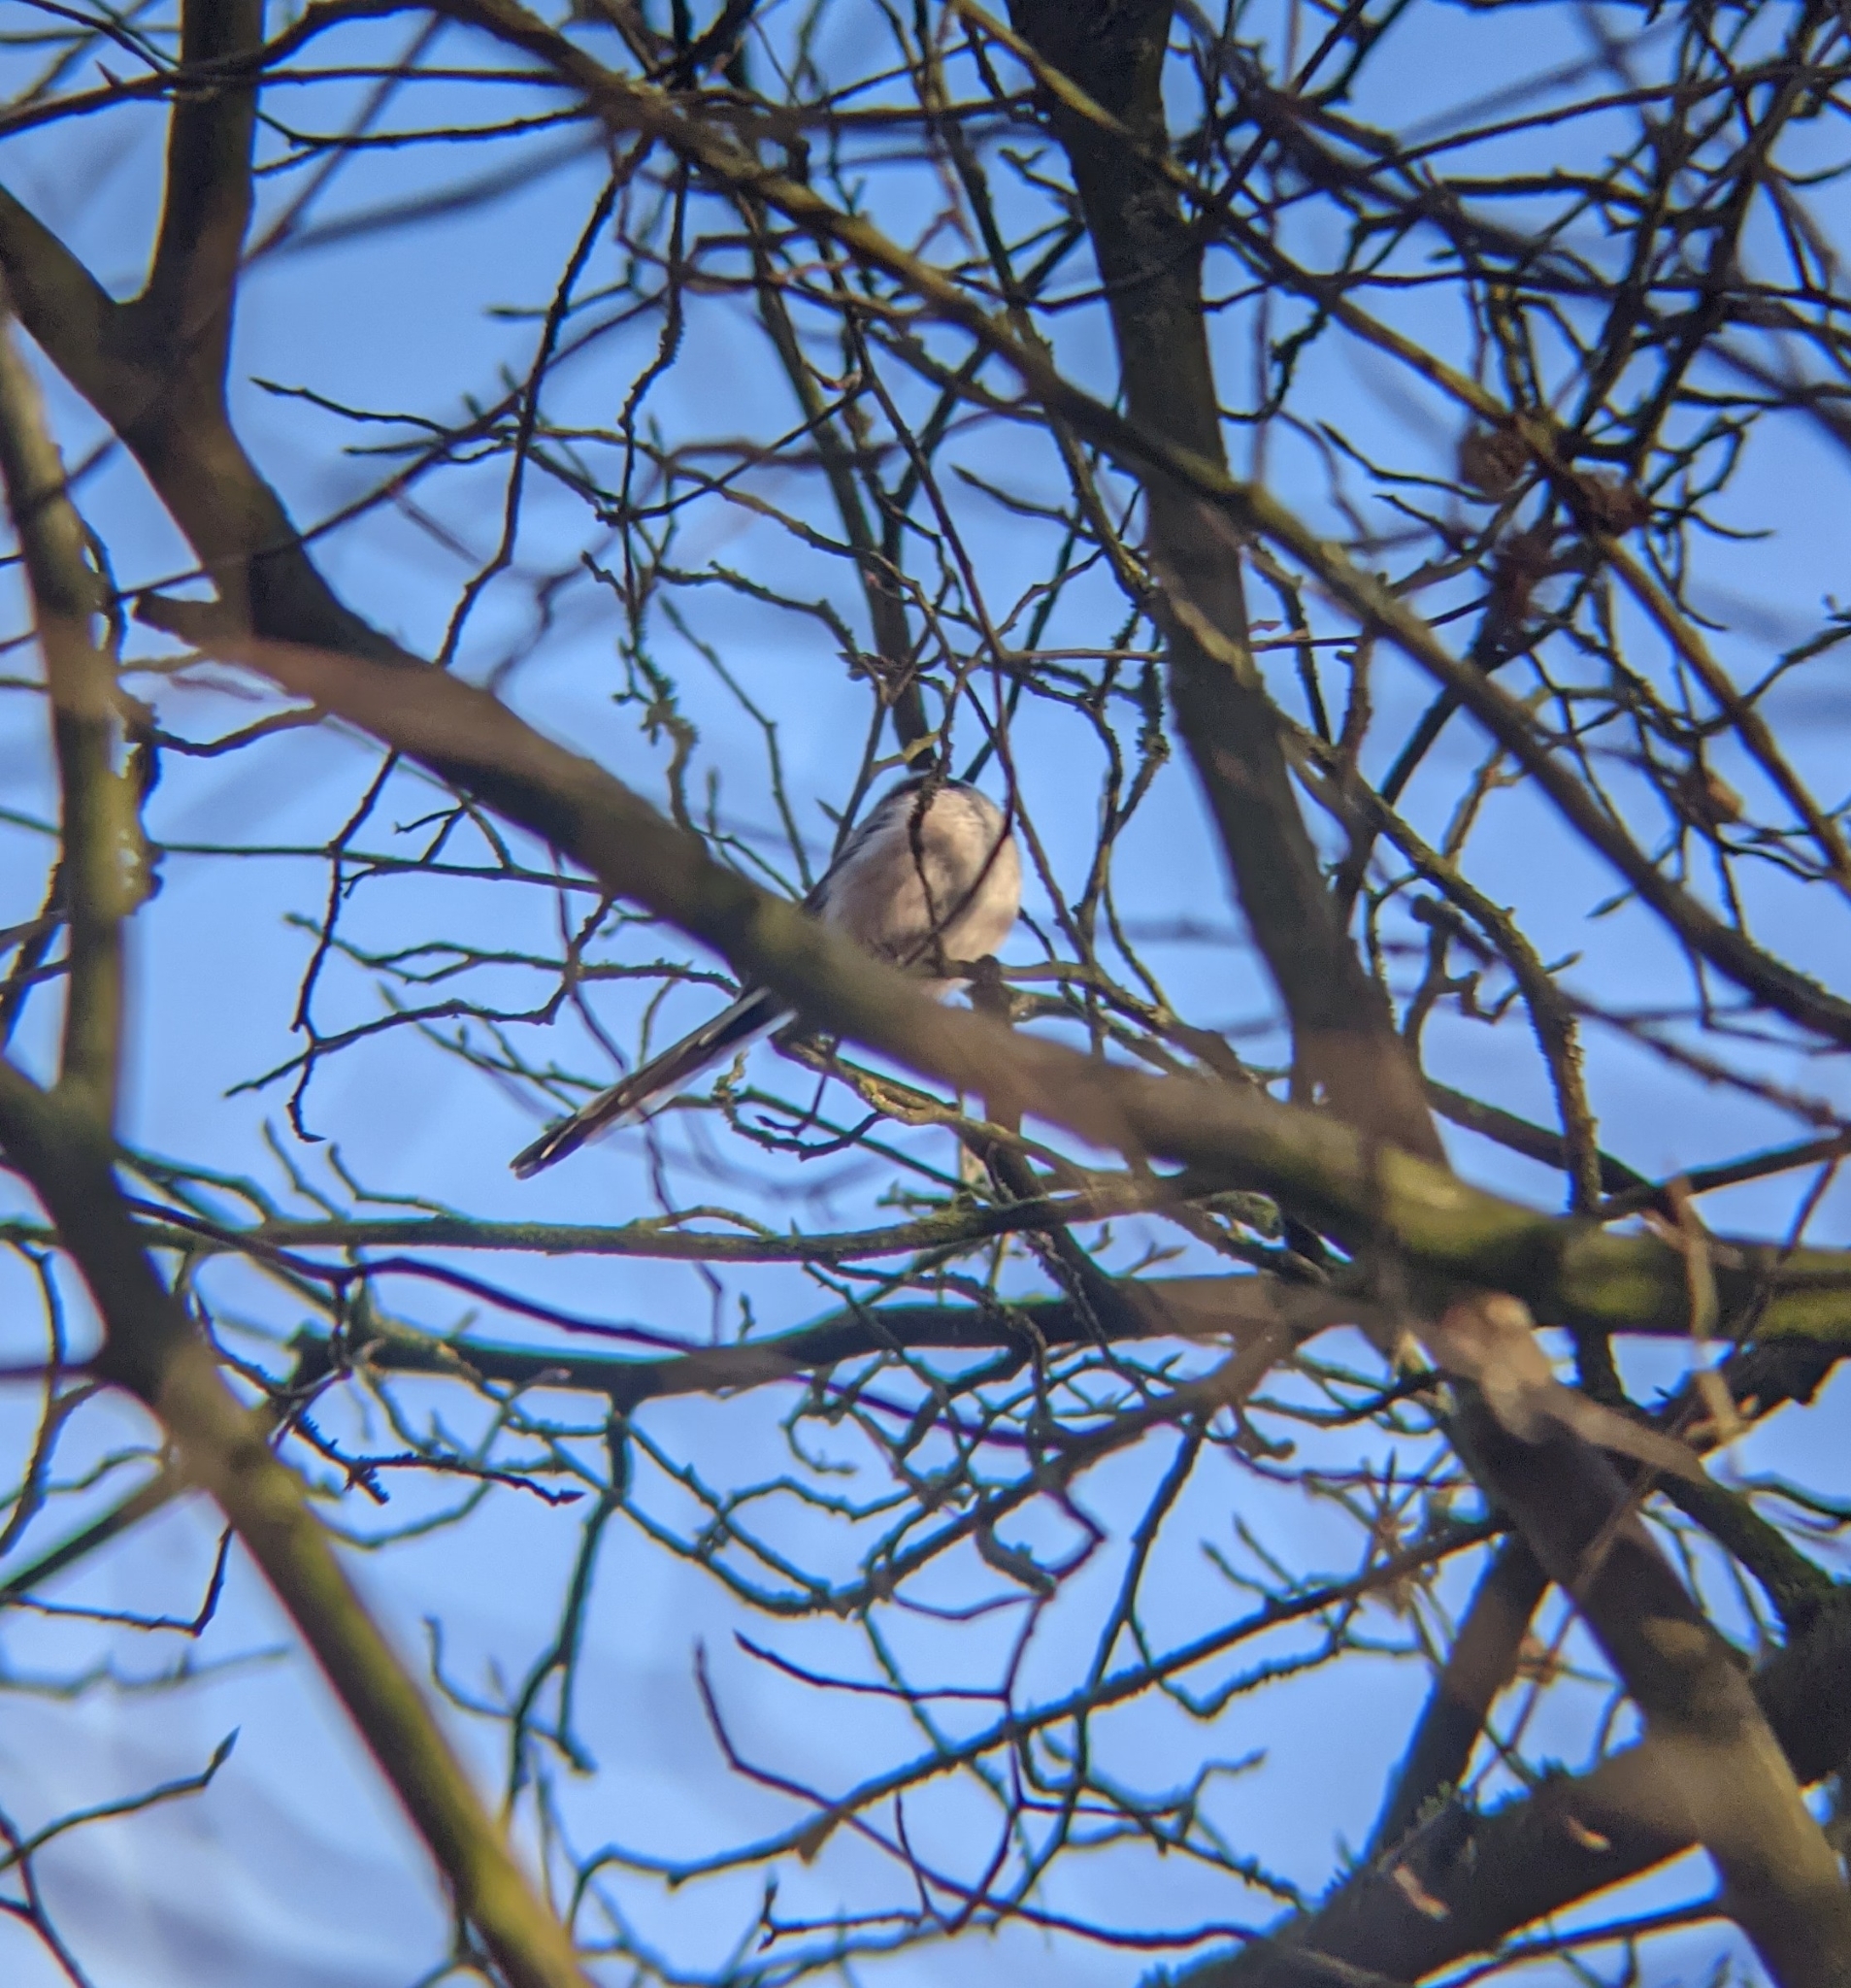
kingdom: Animalia
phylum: Chordata
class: Aves
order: Passeriformes
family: Aegithalidae
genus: Aegithalos
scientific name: Aegithalos caudatus
